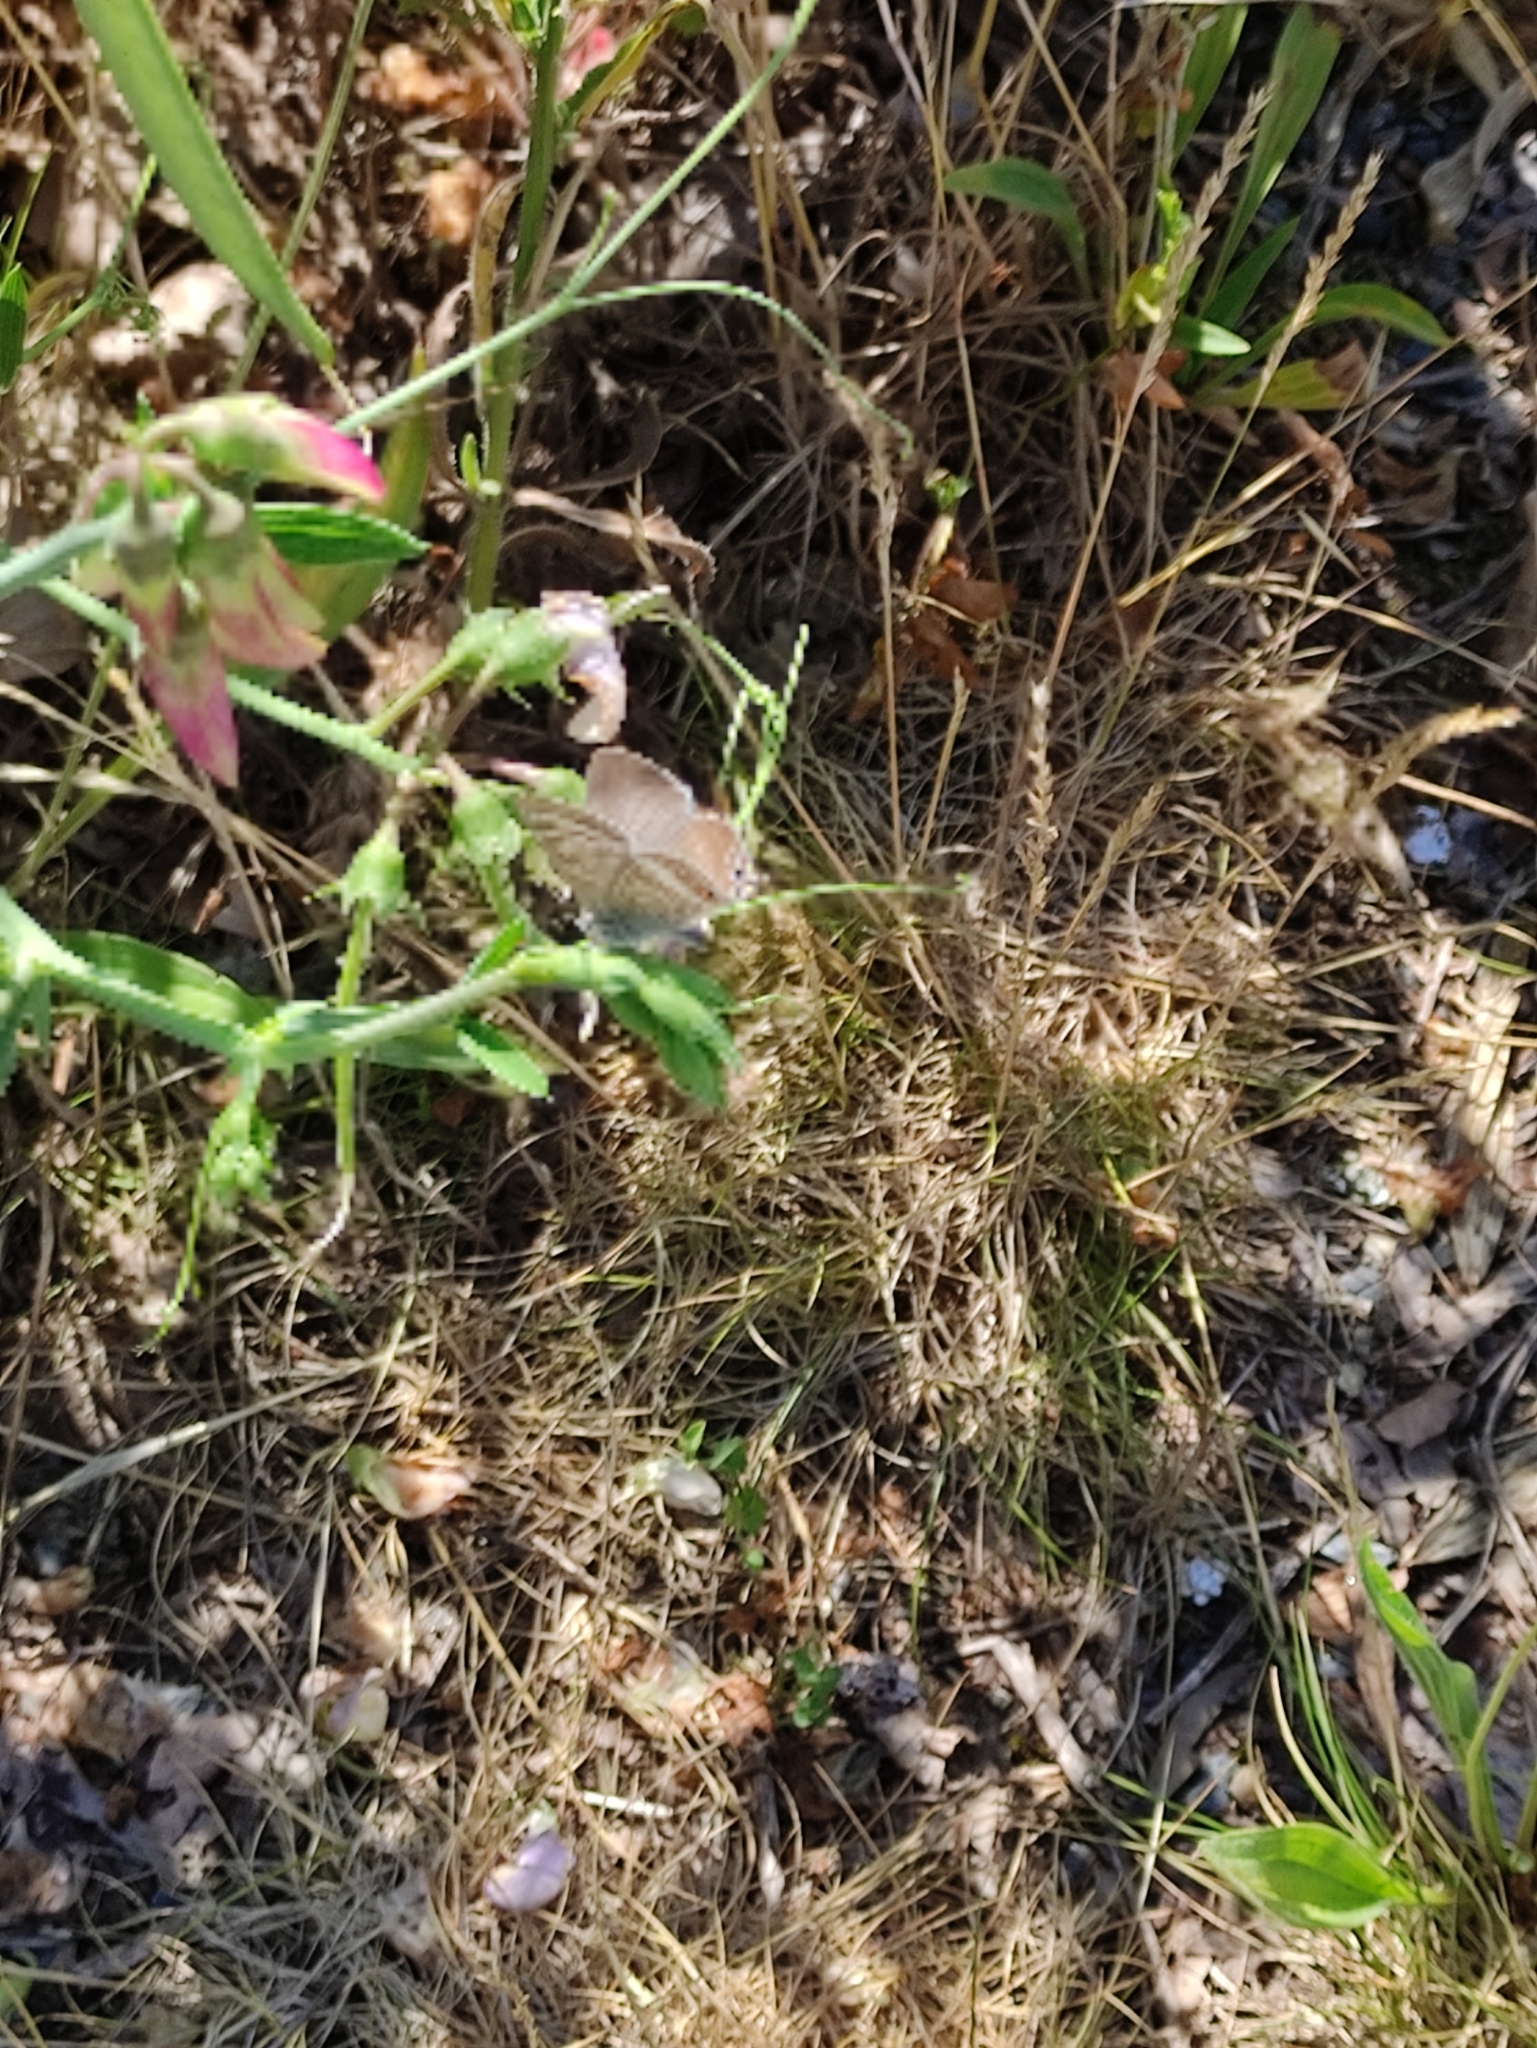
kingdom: Animalia
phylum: Arthropoda
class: Insecta
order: Lepidoptera
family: Lycaenidae
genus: Lampides
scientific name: Lampides boeticus
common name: Long-tailed blue
